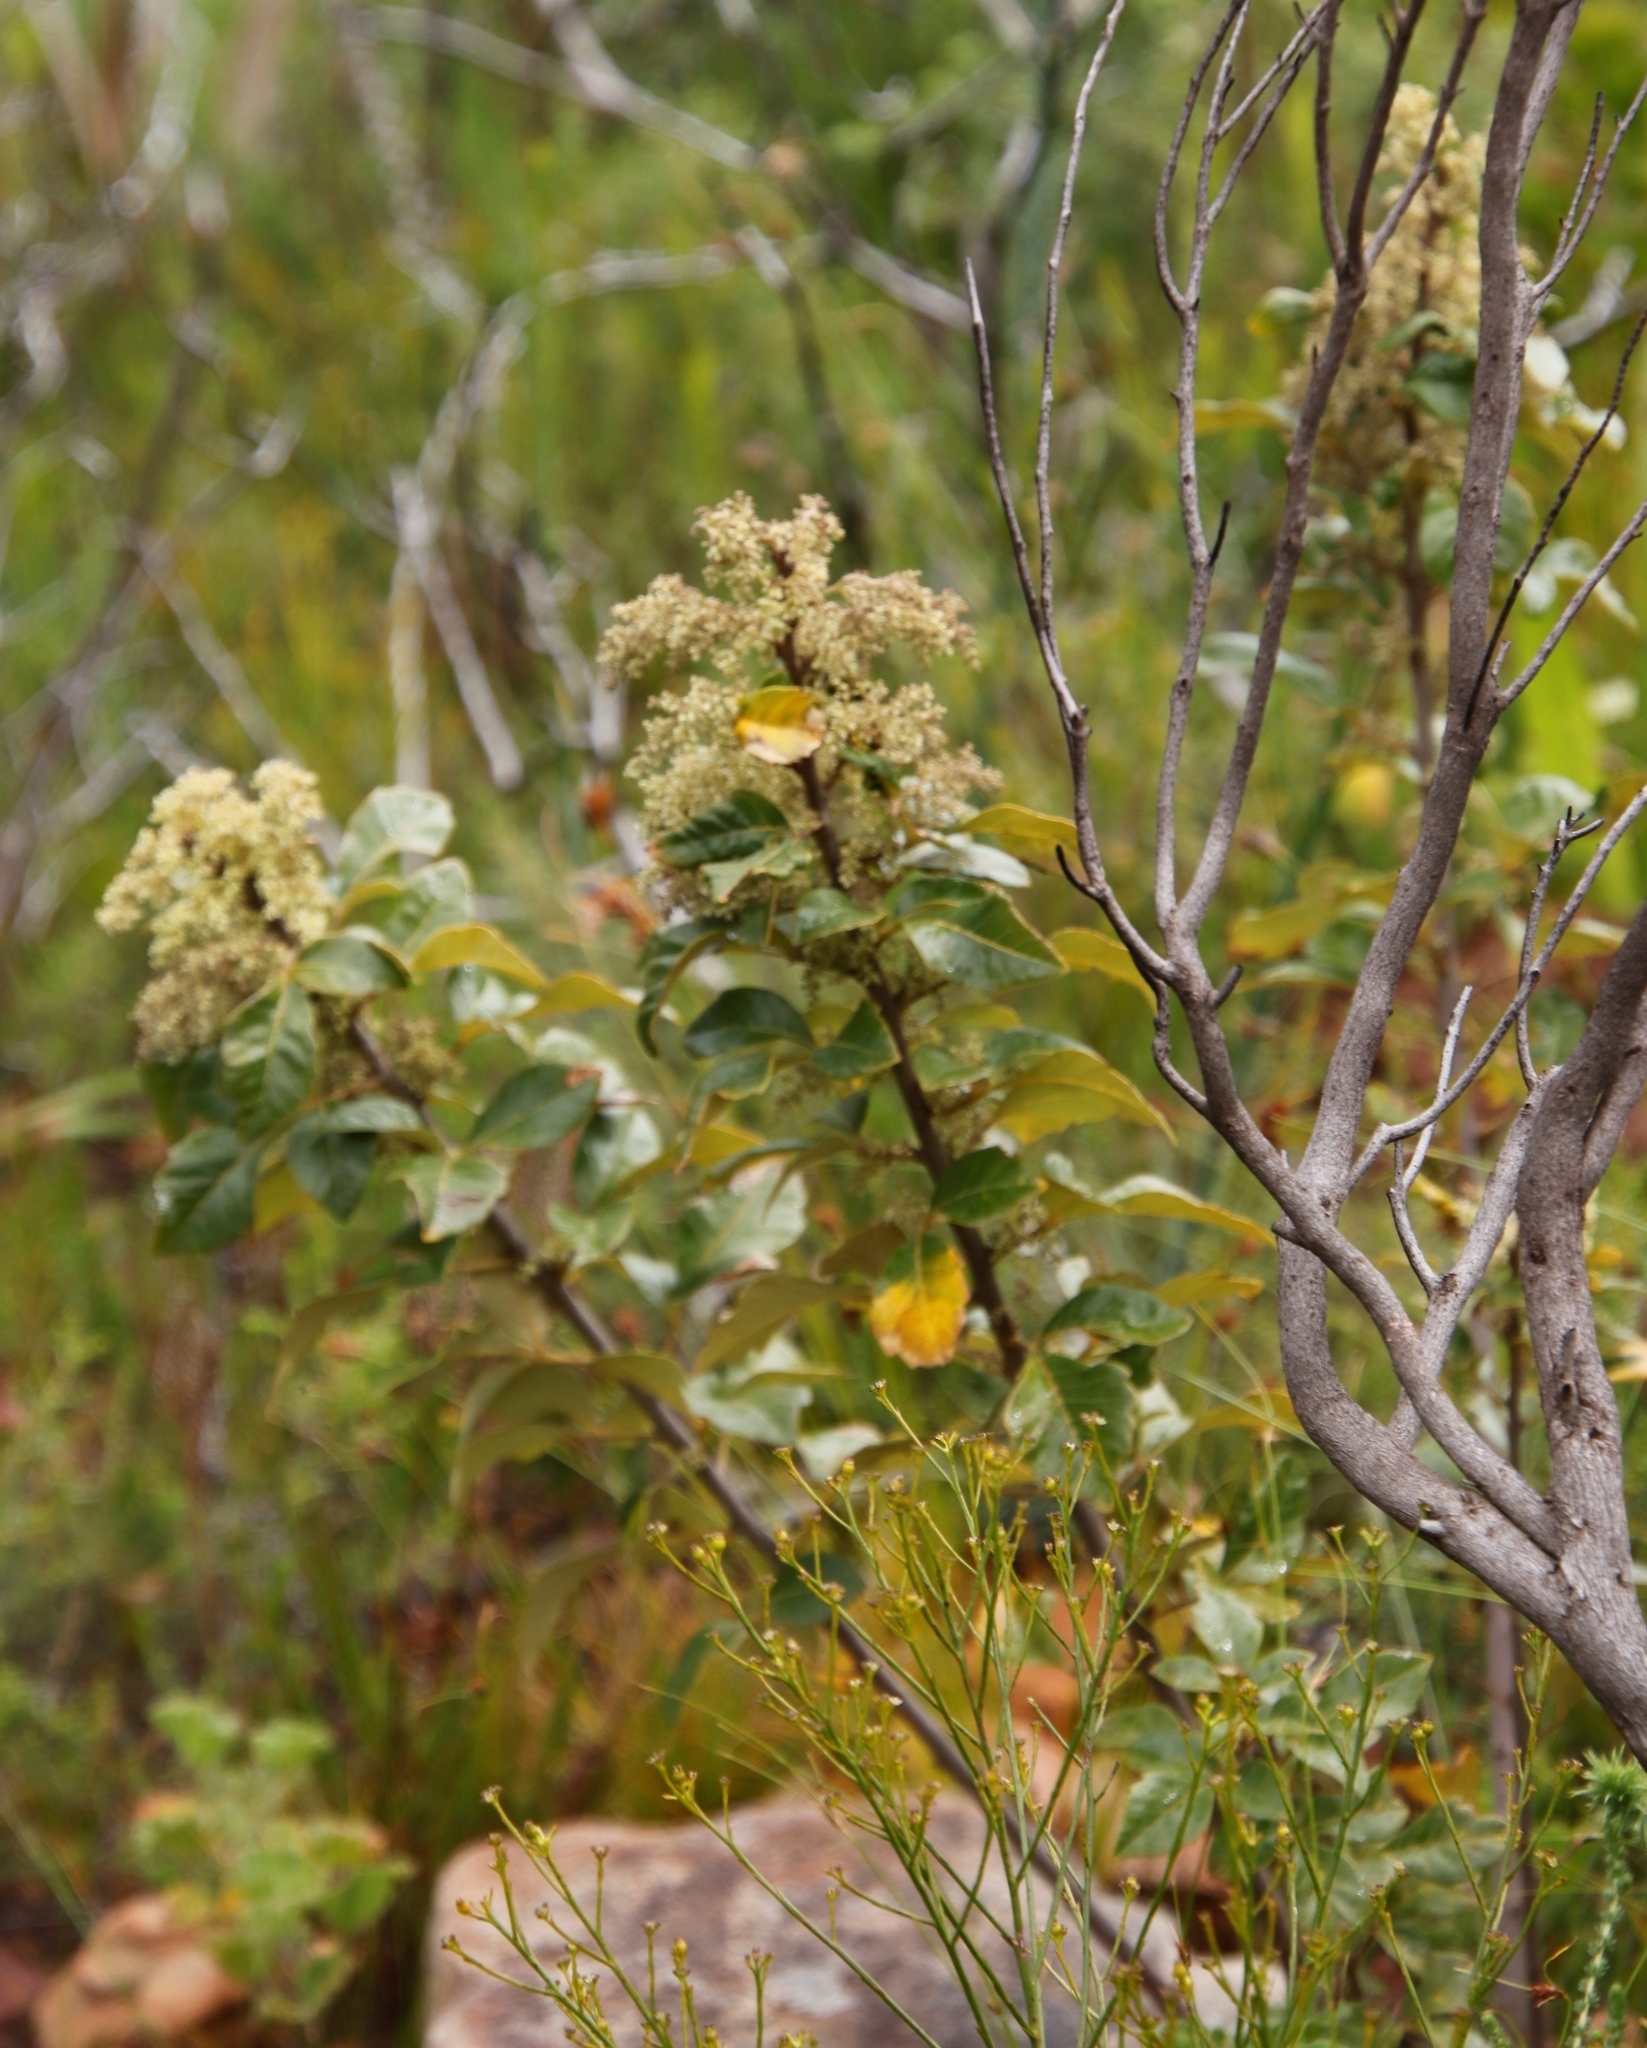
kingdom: Plantae
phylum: Tracheophyta
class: Magnoliopsida
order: Sapindales
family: Anacardiaceae
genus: Searsia
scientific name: Searsia tomentosa
